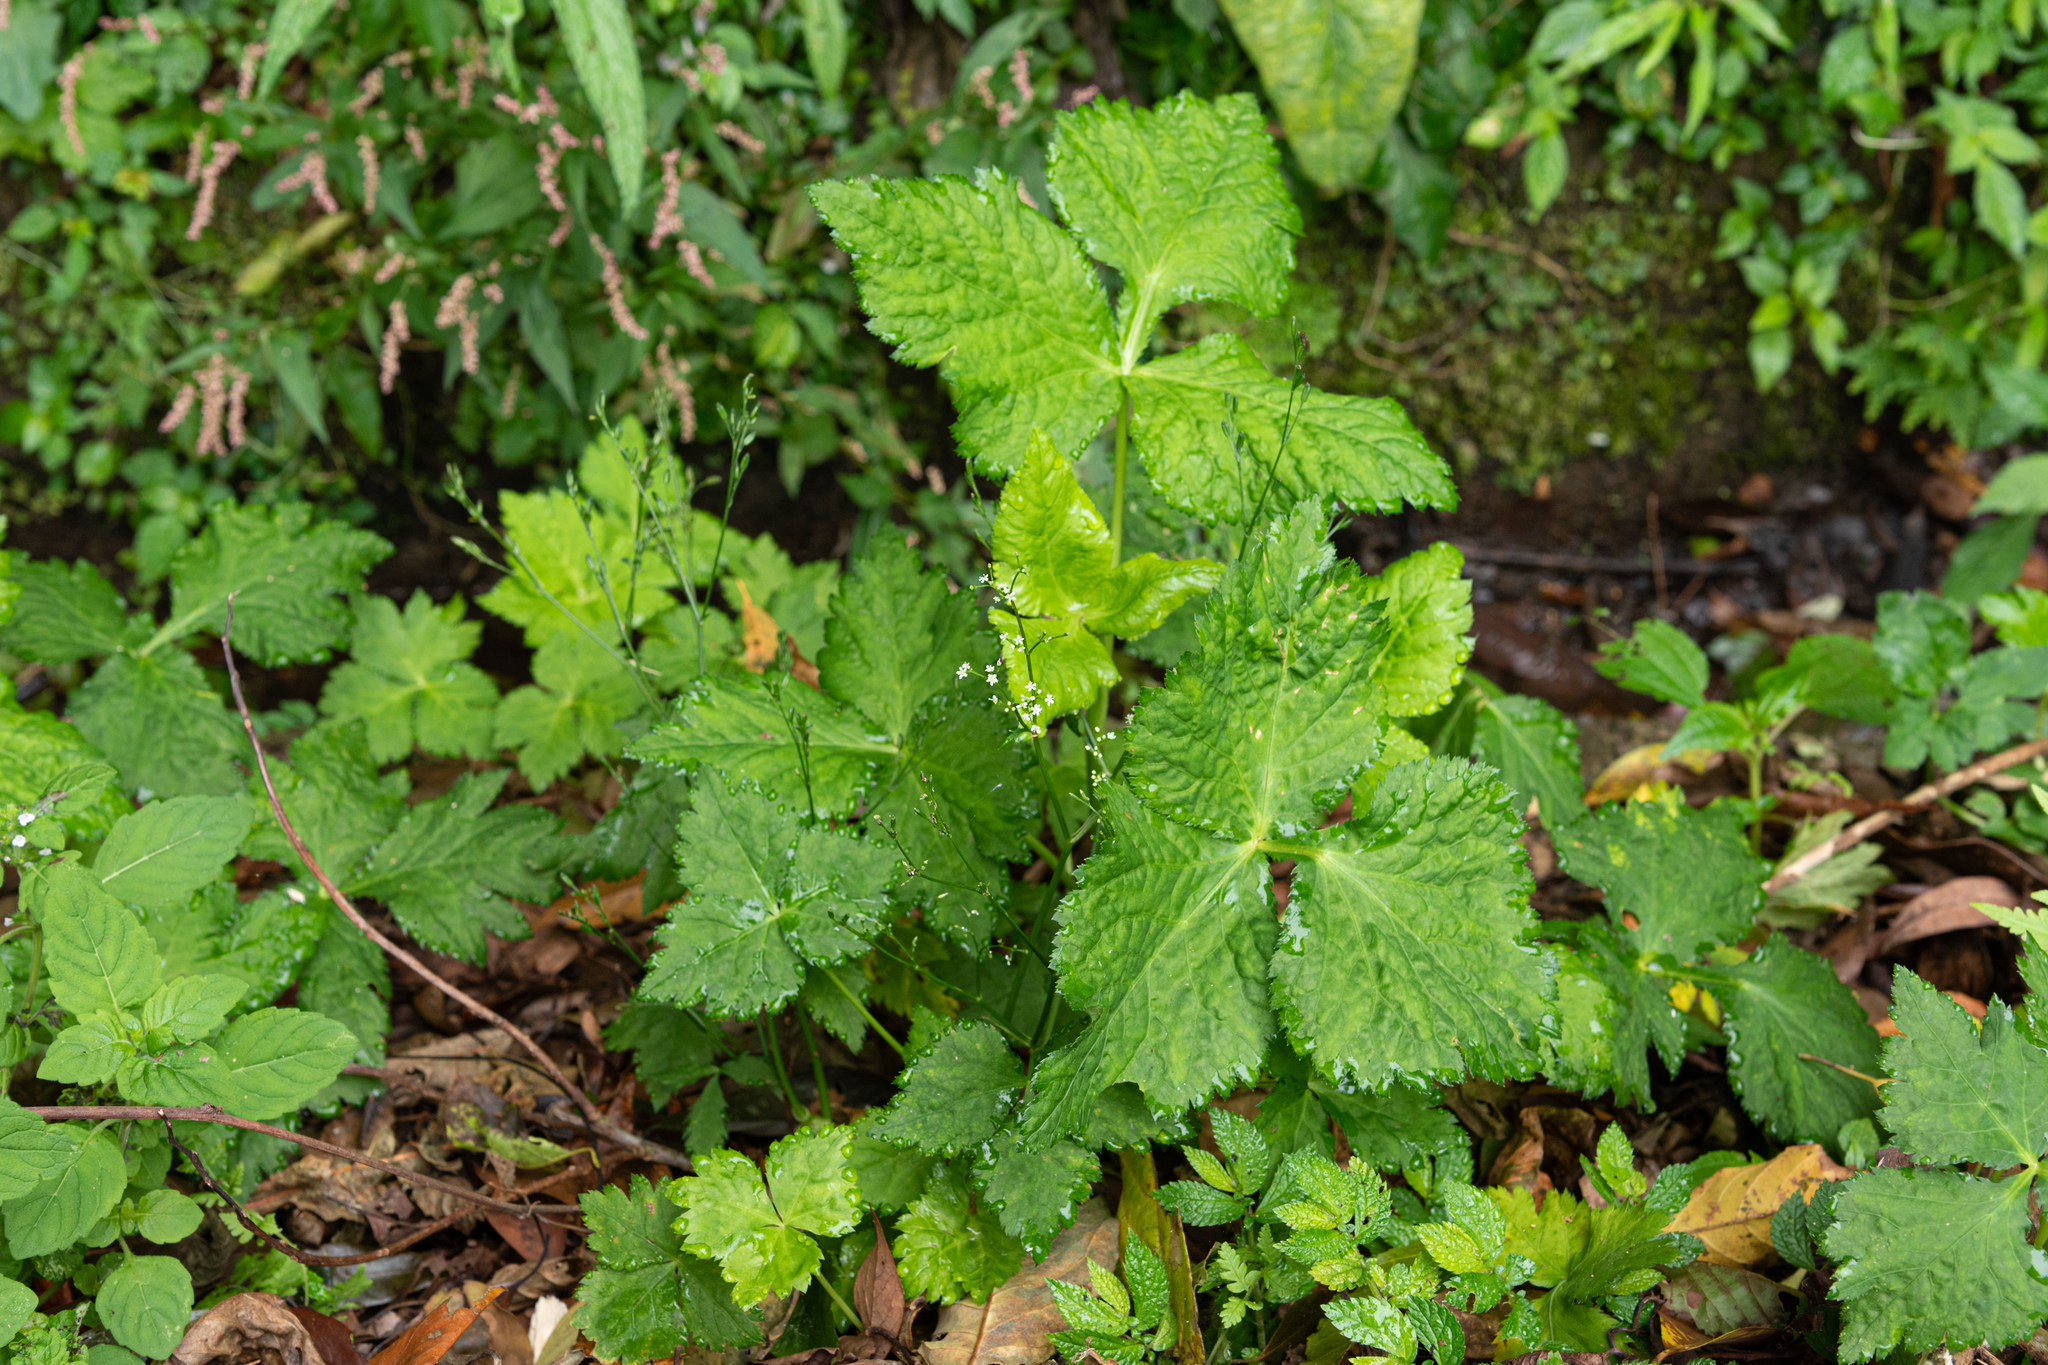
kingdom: Plantae
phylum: Tracheophyta
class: Magnoliopsida
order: Apiales
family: Apiaceae
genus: Cryptotaenia
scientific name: Cryptotaenia japonica
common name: Japanese cryptotaenia
